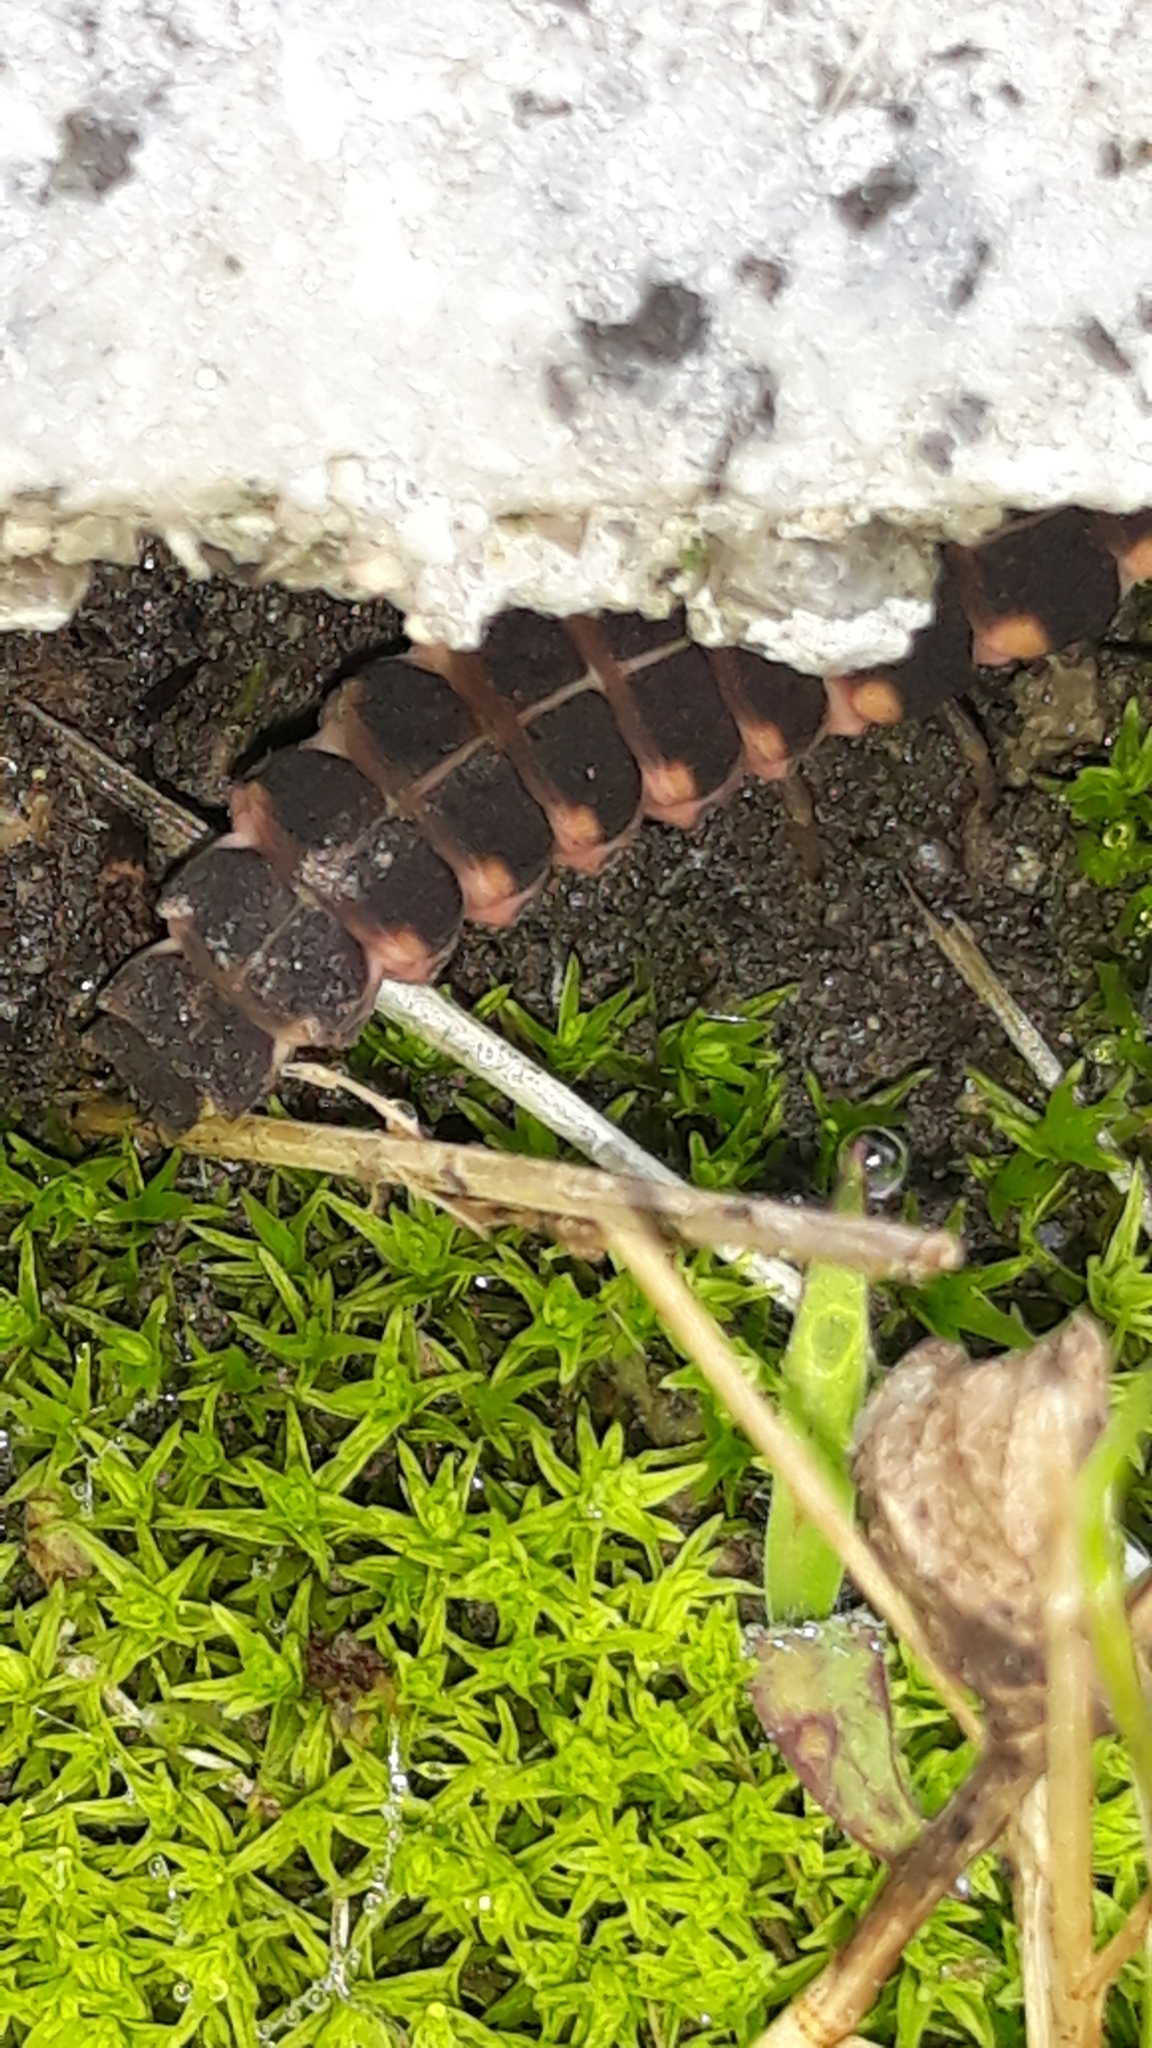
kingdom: Animalia
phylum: Arthropoda
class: Insecta
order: Coleoptera
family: Lampyridae
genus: Lampyris
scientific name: Lampyris
